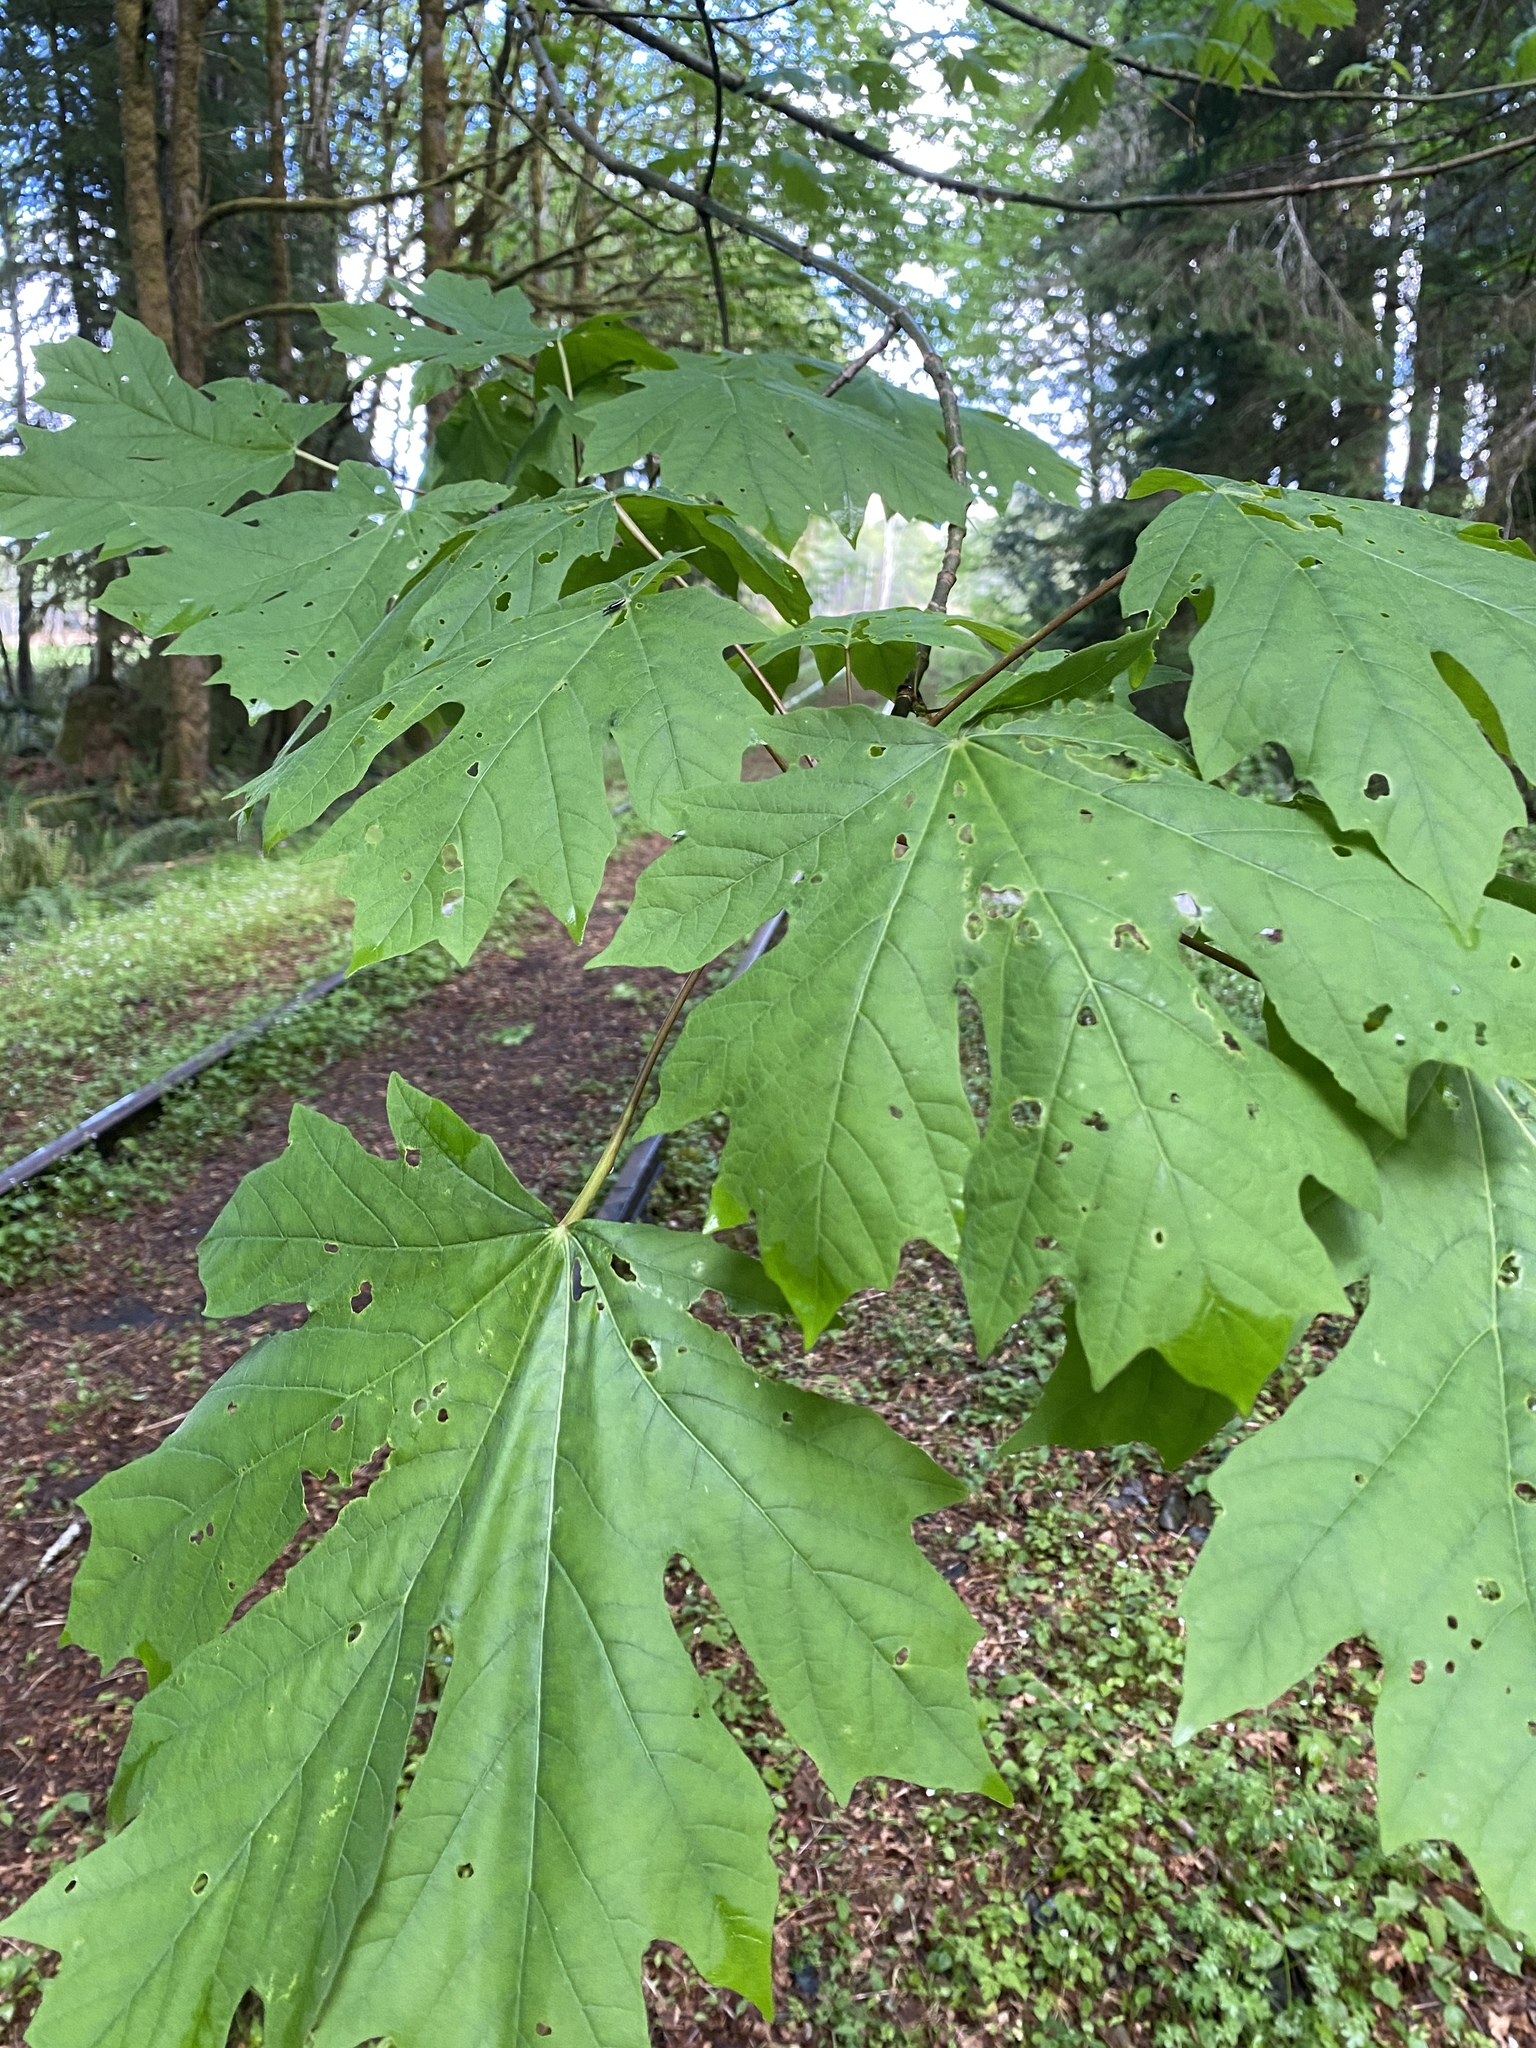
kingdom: Plantae
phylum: Tracheophyta
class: Magnoliopsida
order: Sapindales
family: Sapindaceae
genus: Acer
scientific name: Acer macrophyllum
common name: Oregon maple
